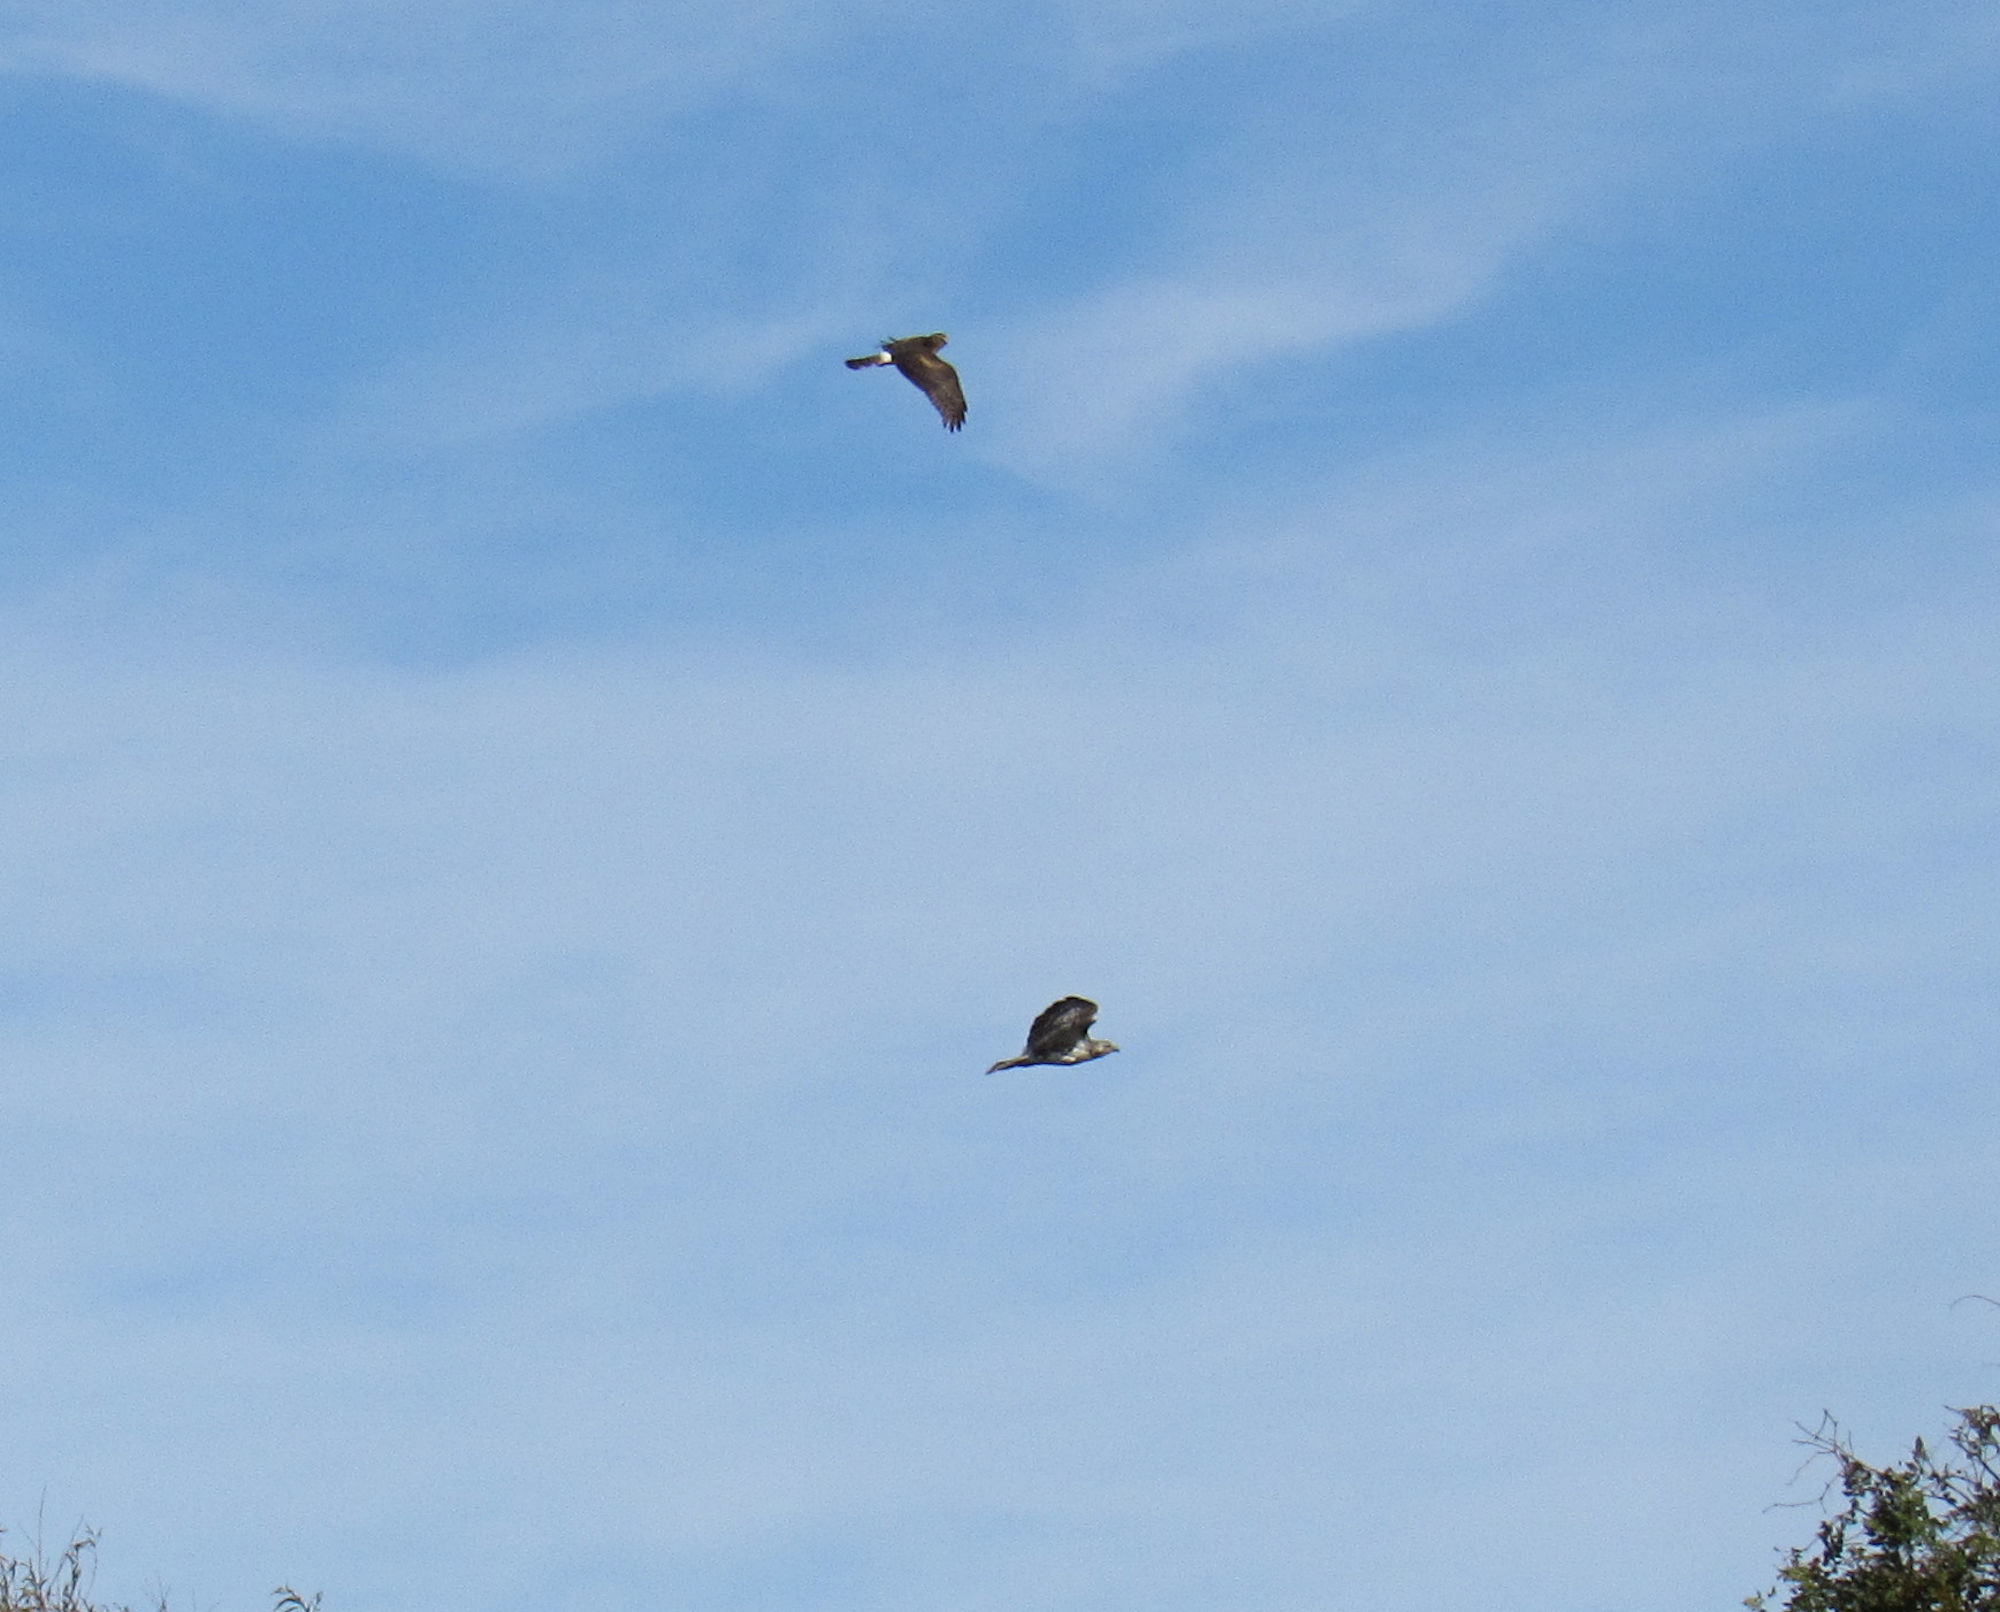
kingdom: Animalia
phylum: Chordata
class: Aves
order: Accipitriformes
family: Accipitridae
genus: Buteo
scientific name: Buteo jamaicensis
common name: Red-tailed hawk
